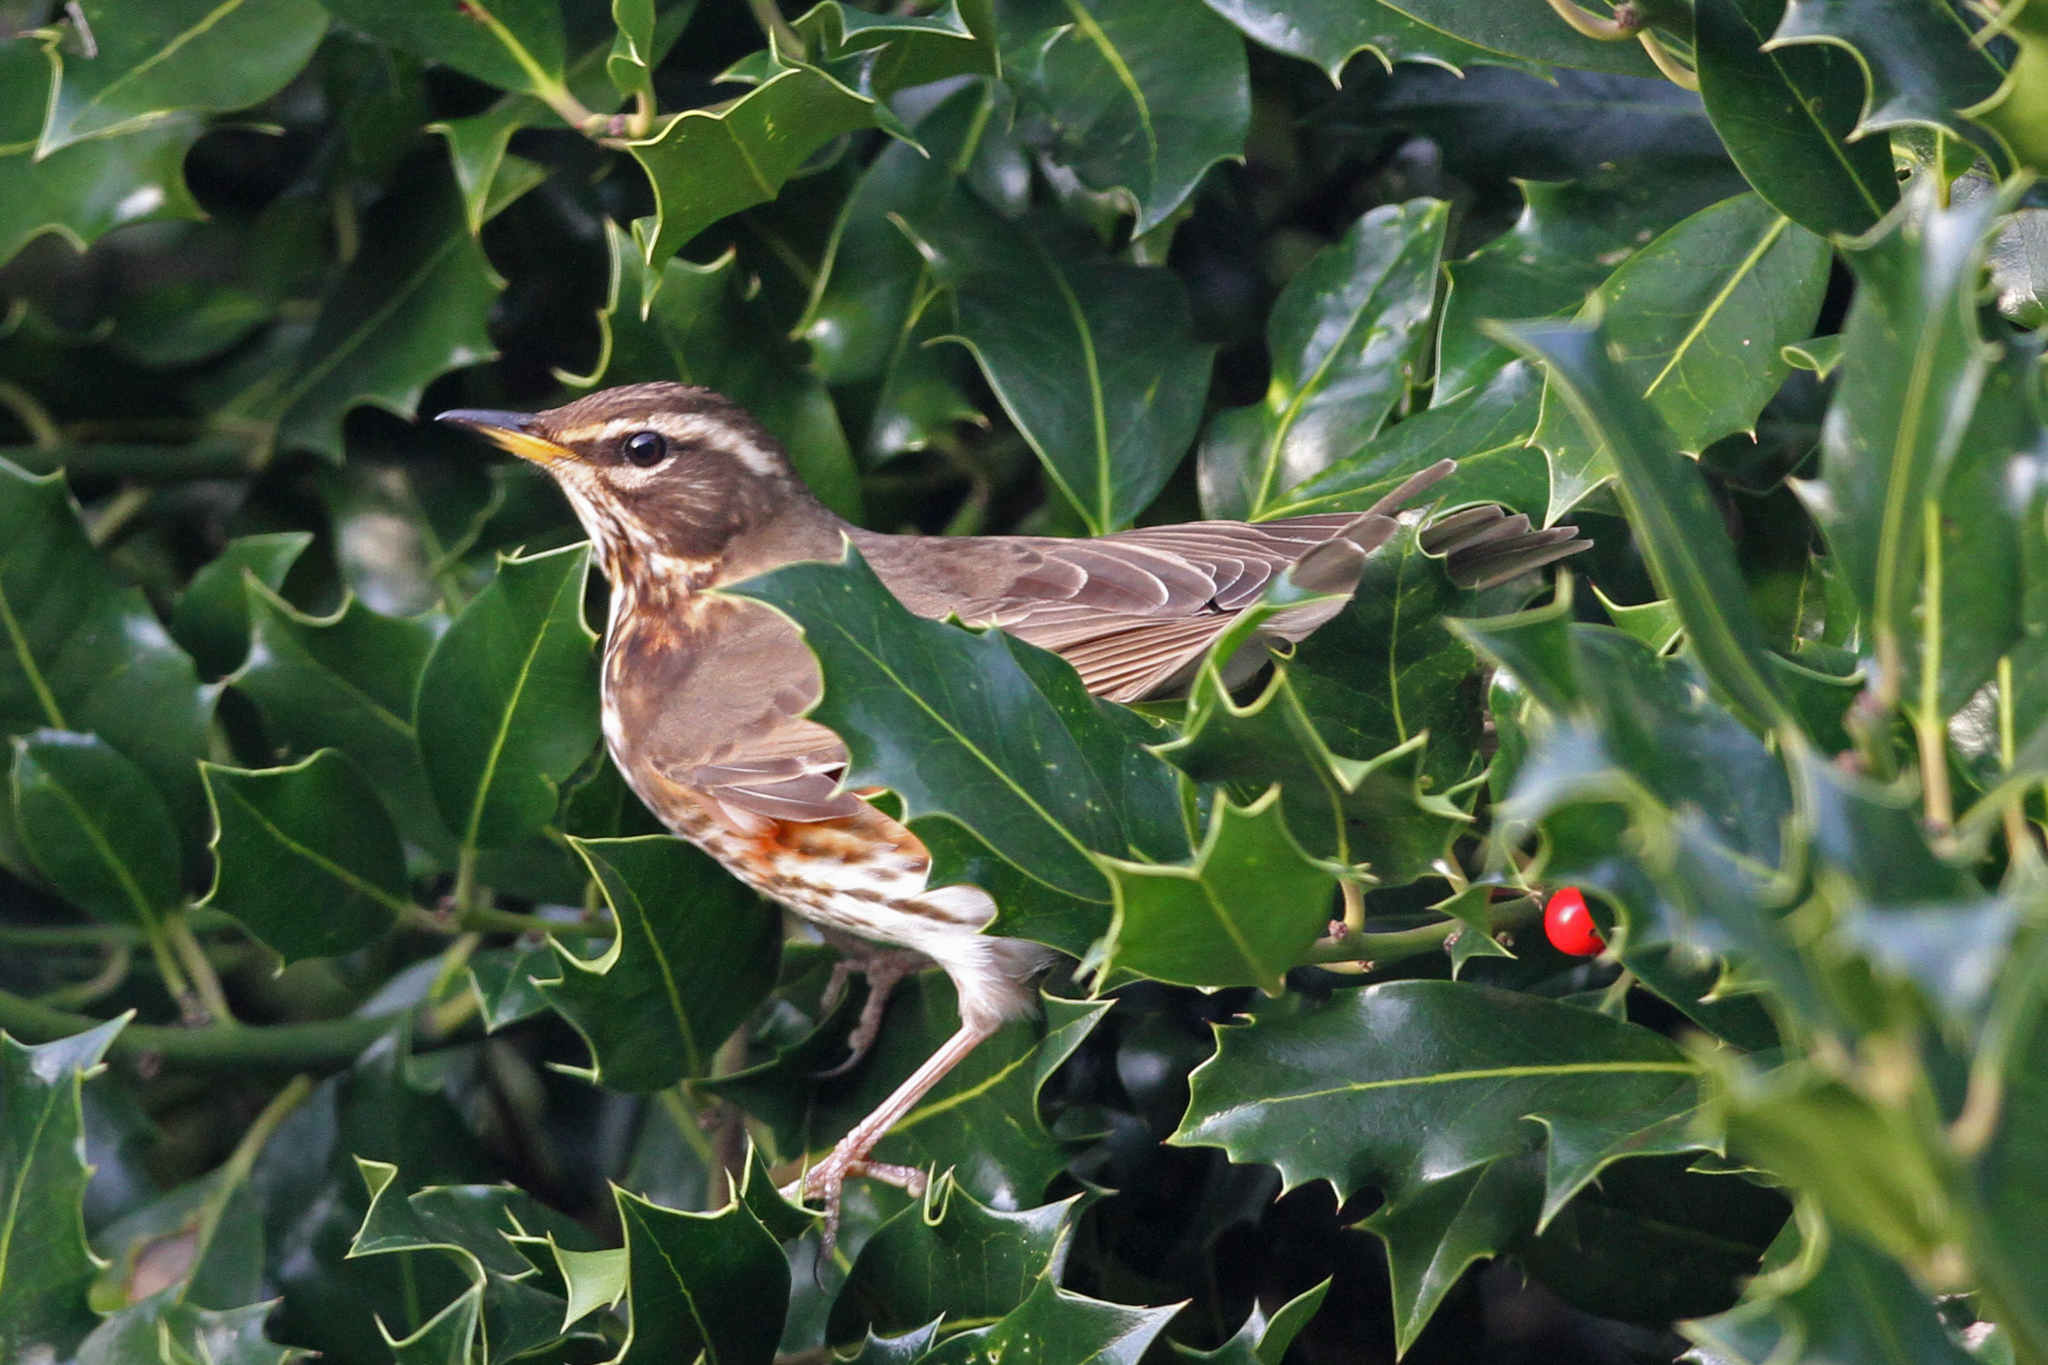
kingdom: Animalia
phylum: Chordata
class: Aves
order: Passeriformes
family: Turdidae
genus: Turdus
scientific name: Turdus iliacus
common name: Redwing
